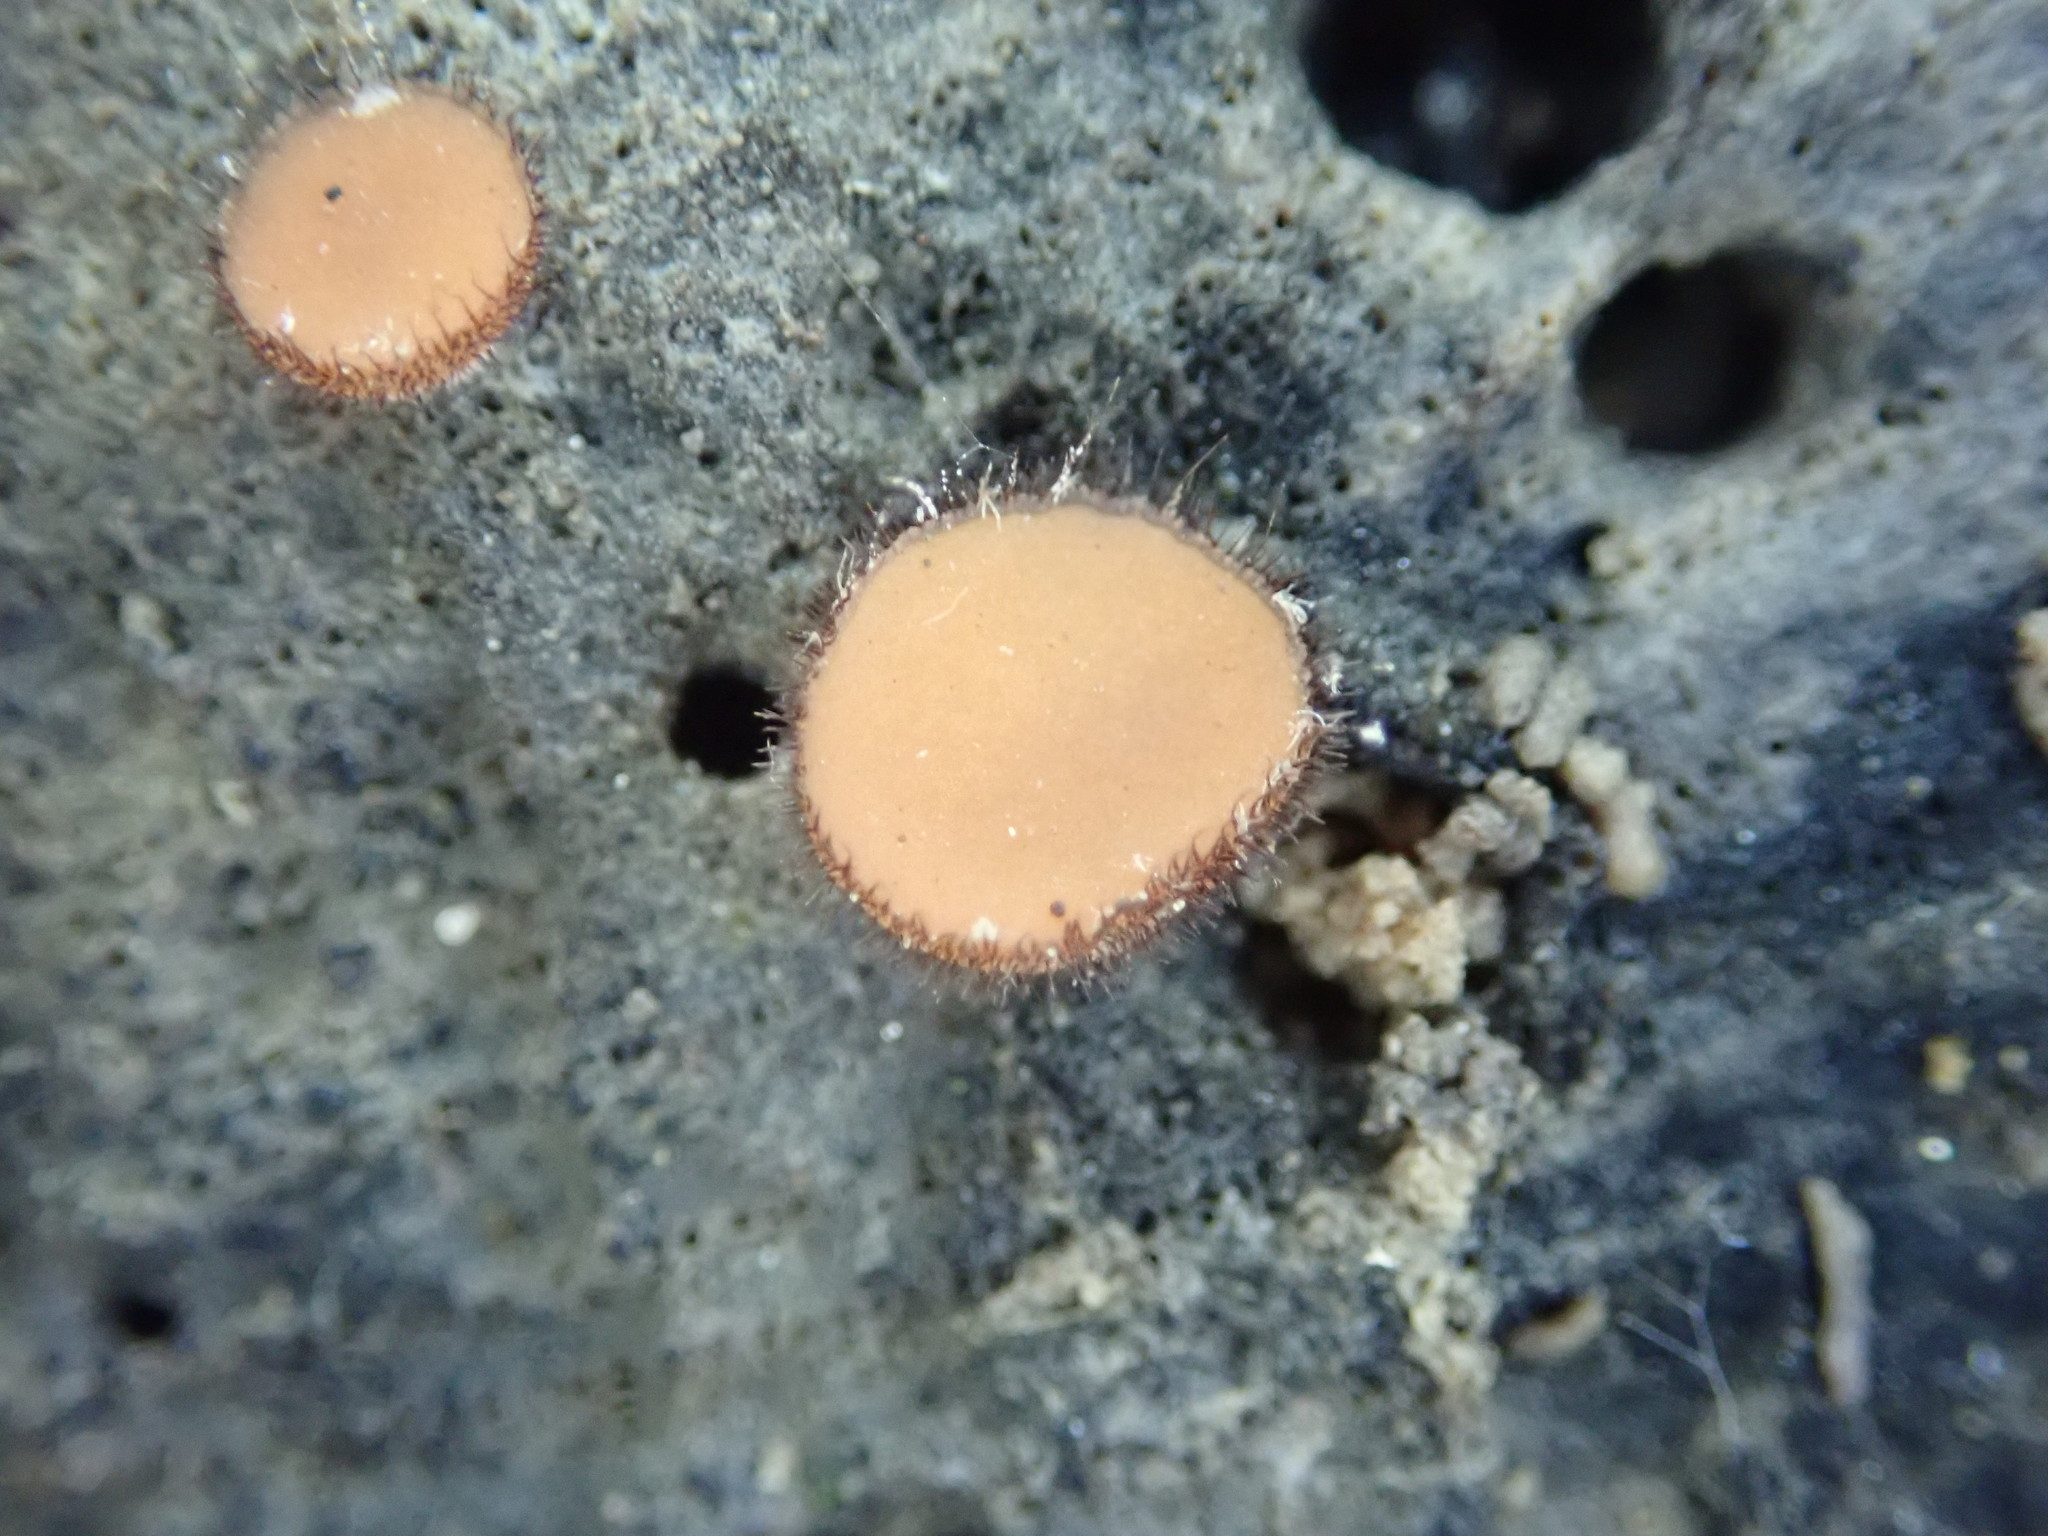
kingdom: Fungi
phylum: Ascomycota
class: Pezizomycetes
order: Pezizales
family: Pyronemataceae
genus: Scutellinia
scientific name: Scutellinia
